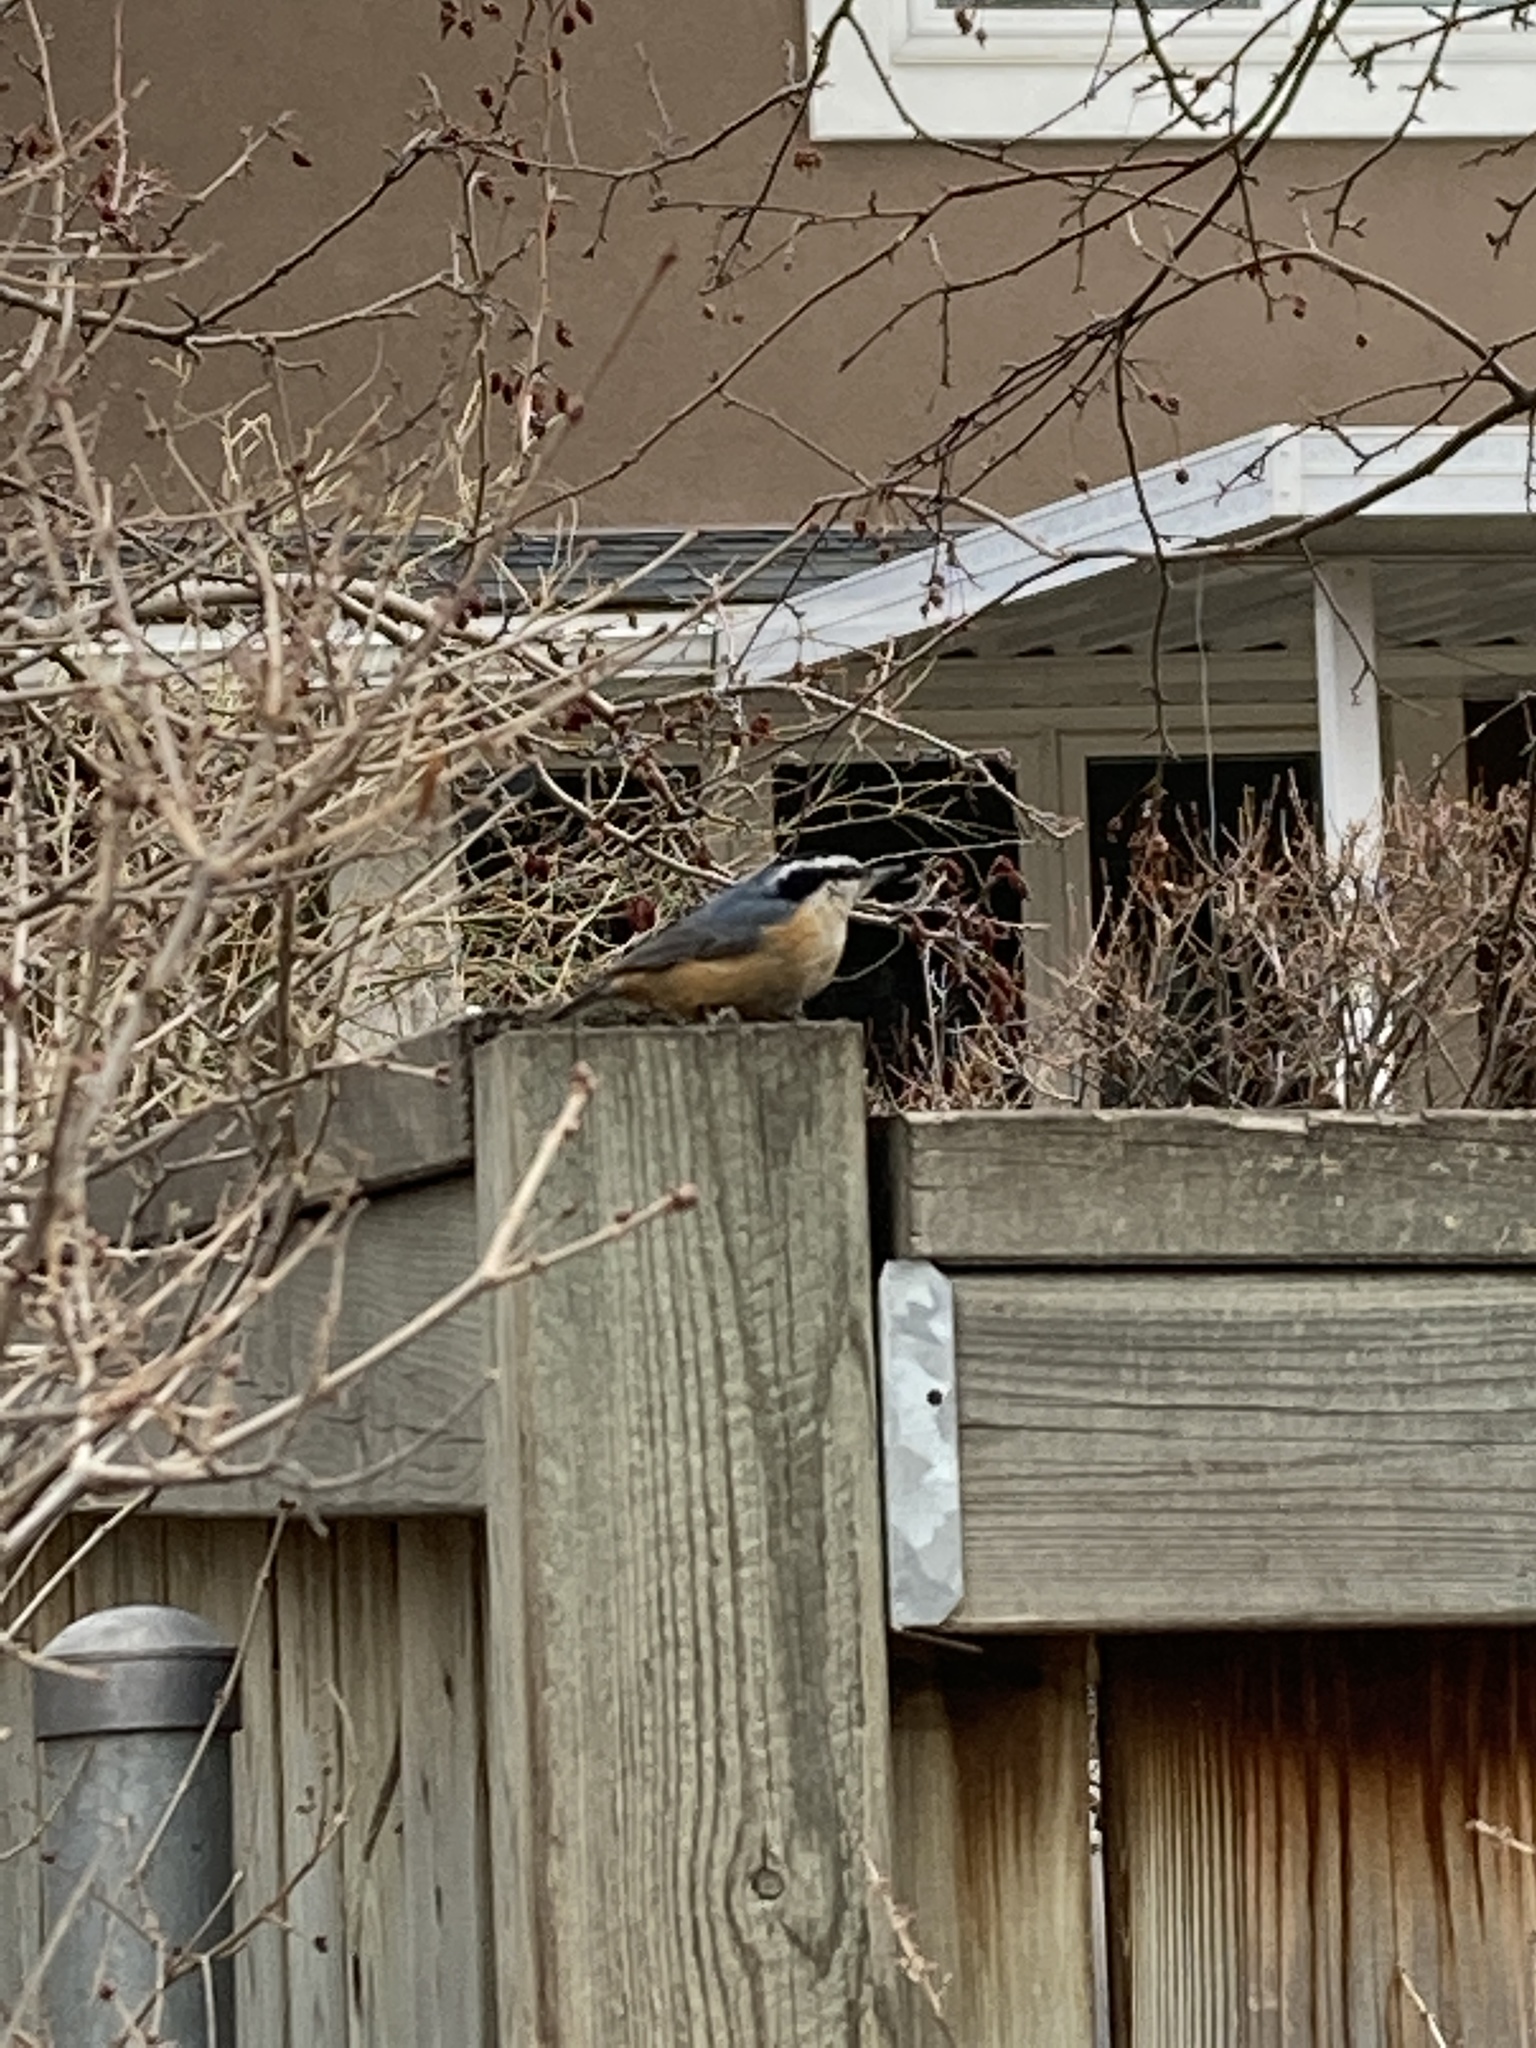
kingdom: Animalia
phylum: Chordata
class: Aves
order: Passeriformes
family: Sittidae
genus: Sitta
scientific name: Sitta canadensis
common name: Red-breasted nuthatch
